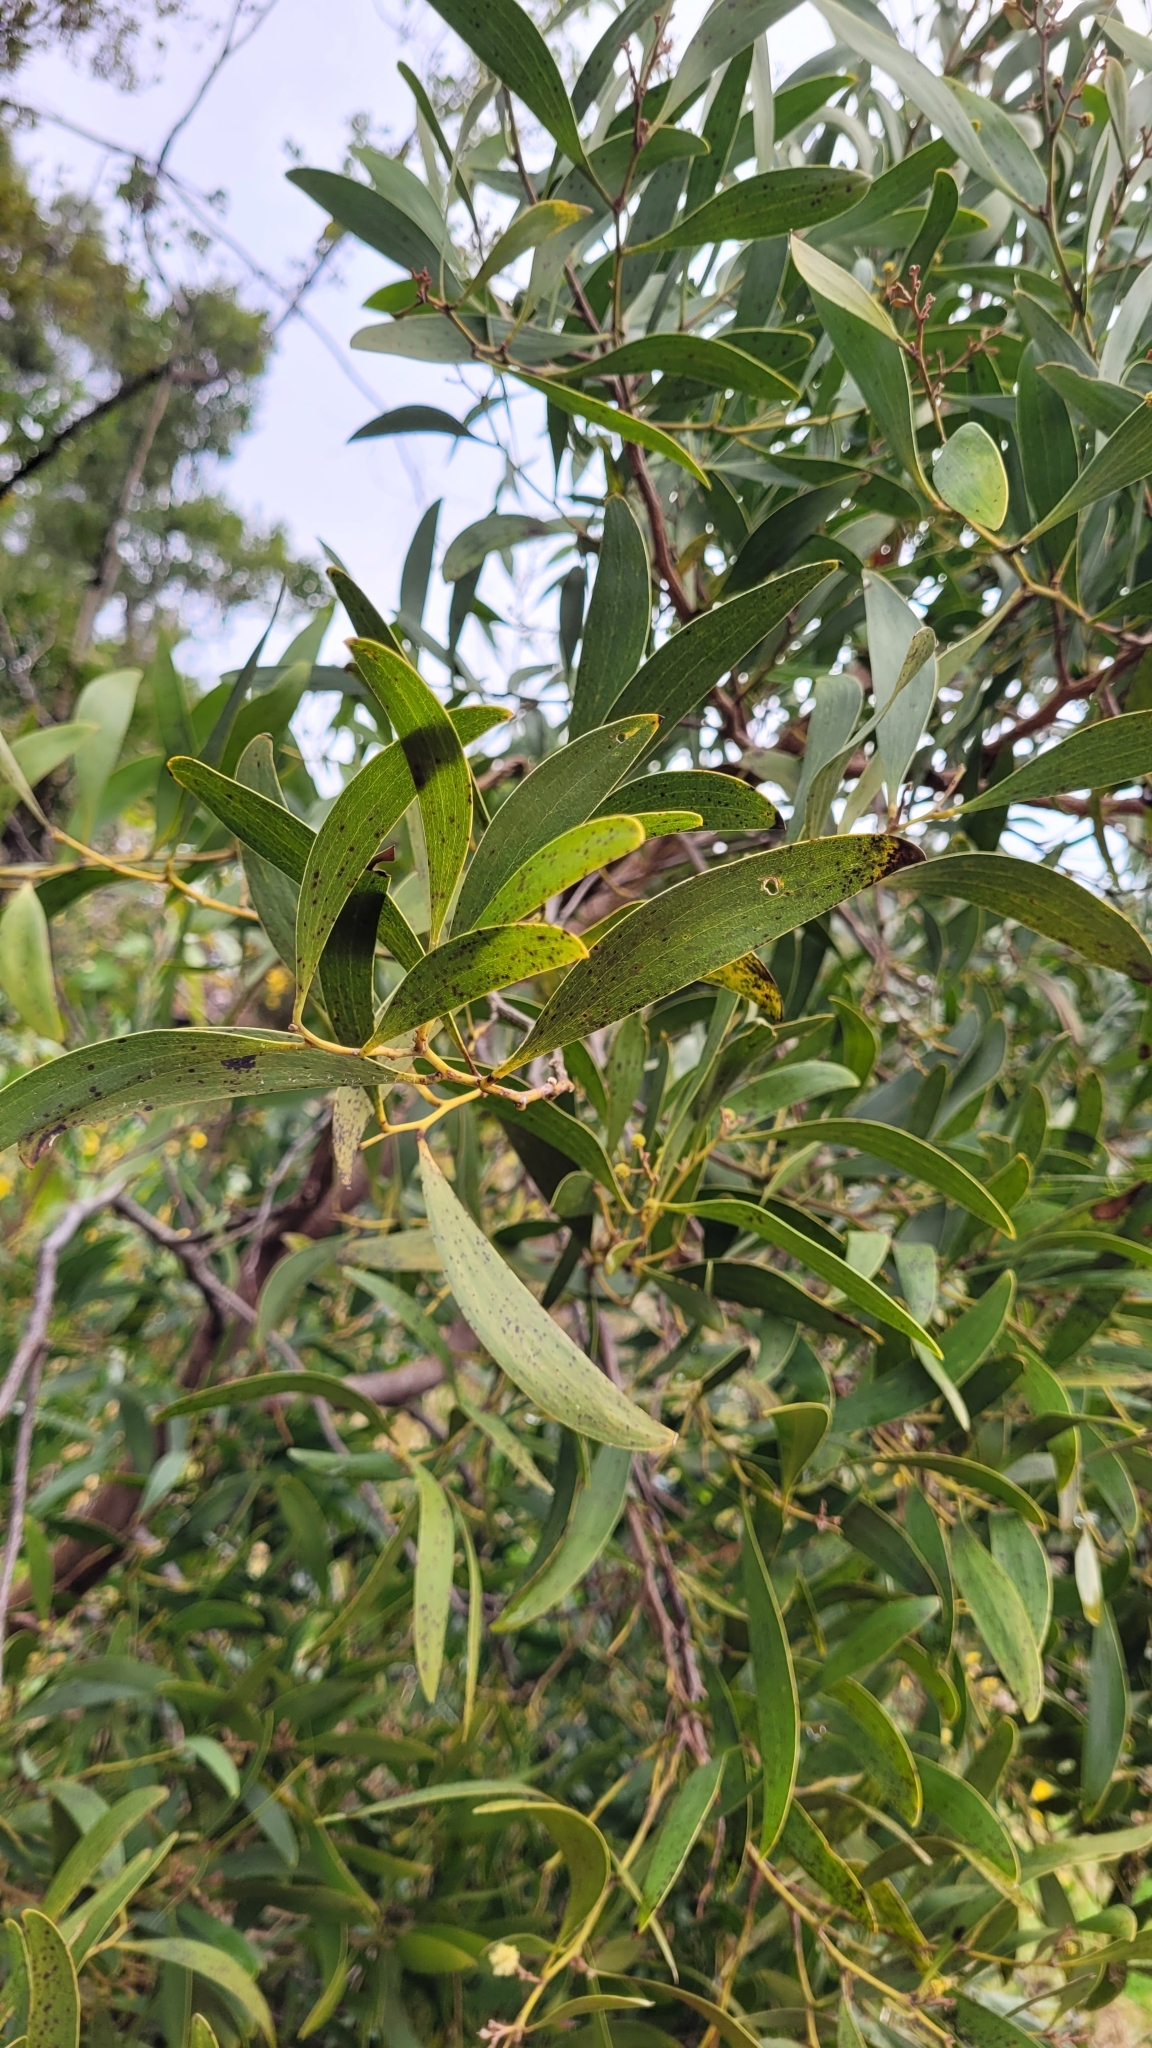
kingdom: Plantae
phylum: Tracheophyta
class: Magnoliopsida
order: Fabales
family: Fabaceae
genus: Acacia
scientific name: Acacia melanoxylon
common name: Blackwood
